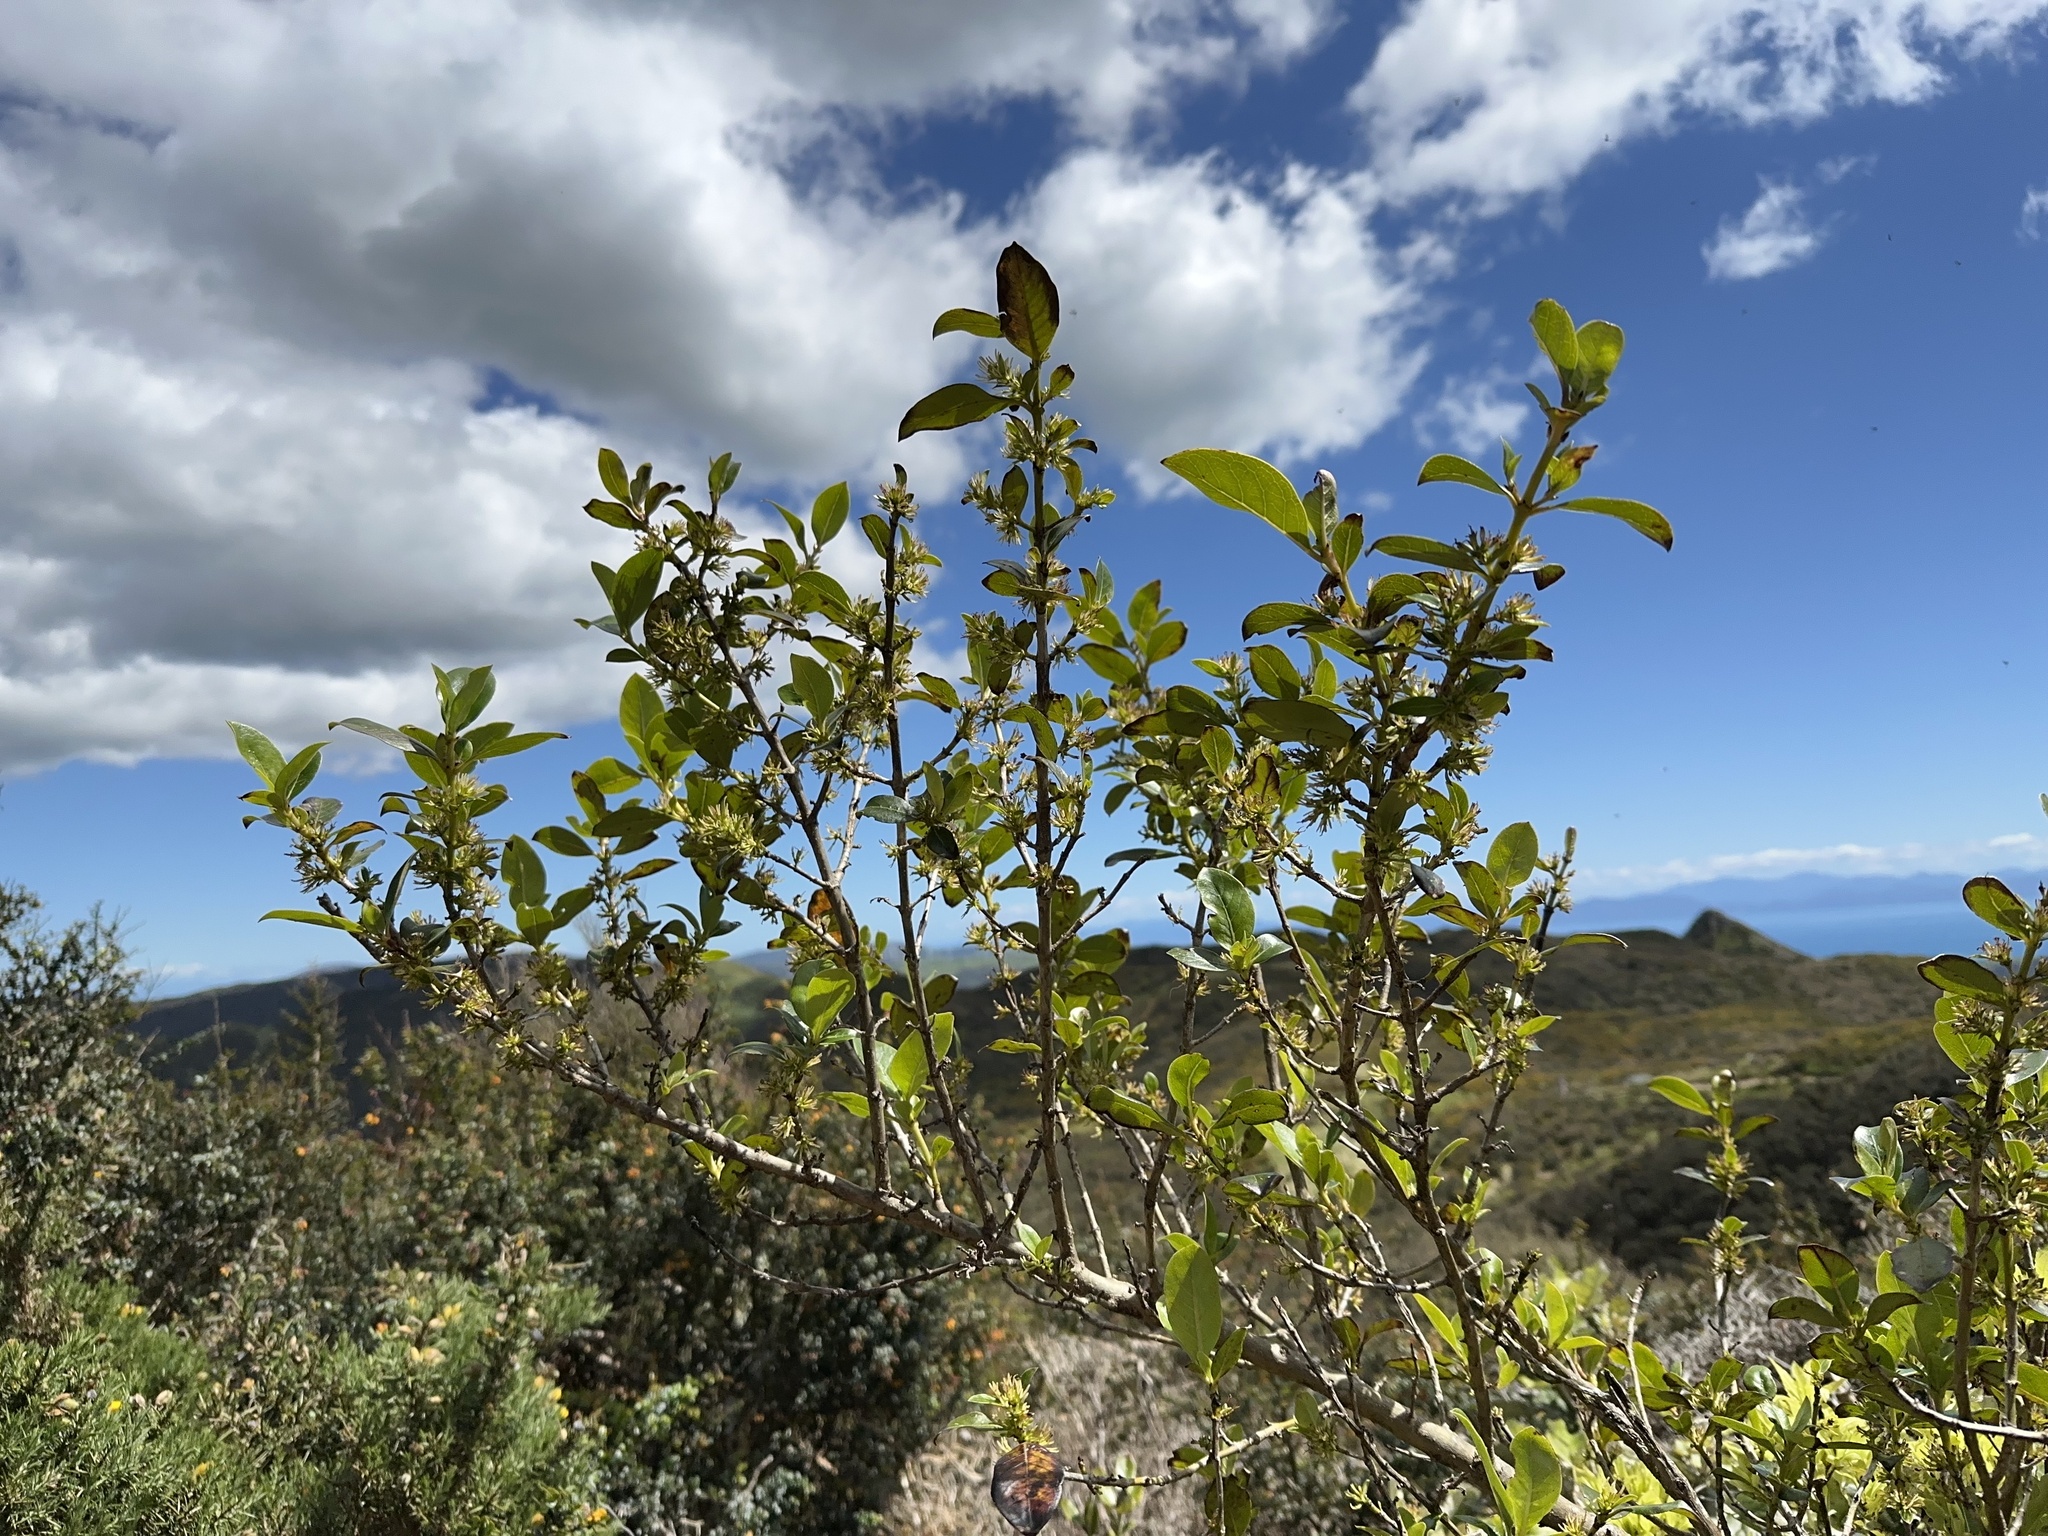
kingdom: Plantae
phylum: Tracheophyta
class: Magnoliopsida
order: Gentianales
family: Rubiaceae
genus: Coprosma
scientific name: Coprosma robusta
